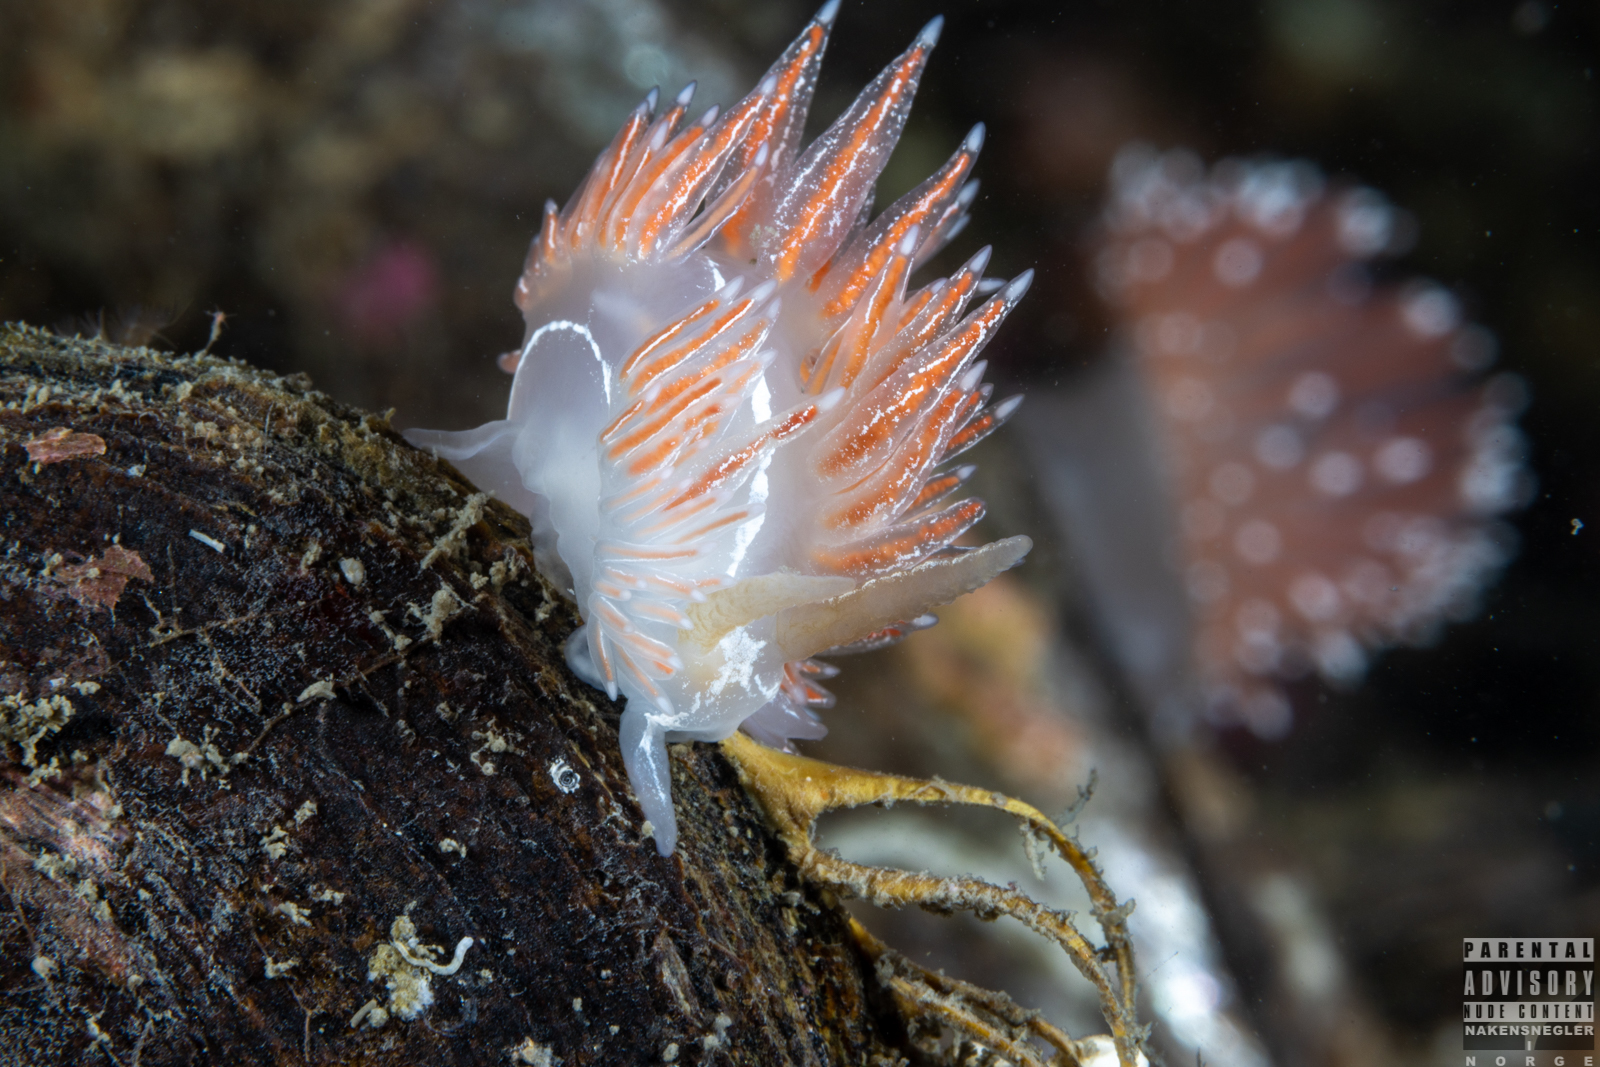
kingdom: Animalia
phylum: Mollusca
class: Gastropoda
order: Nudibranchia
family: Coryphellidae
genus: Coryphella
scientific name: Coryphella chriskaugei
